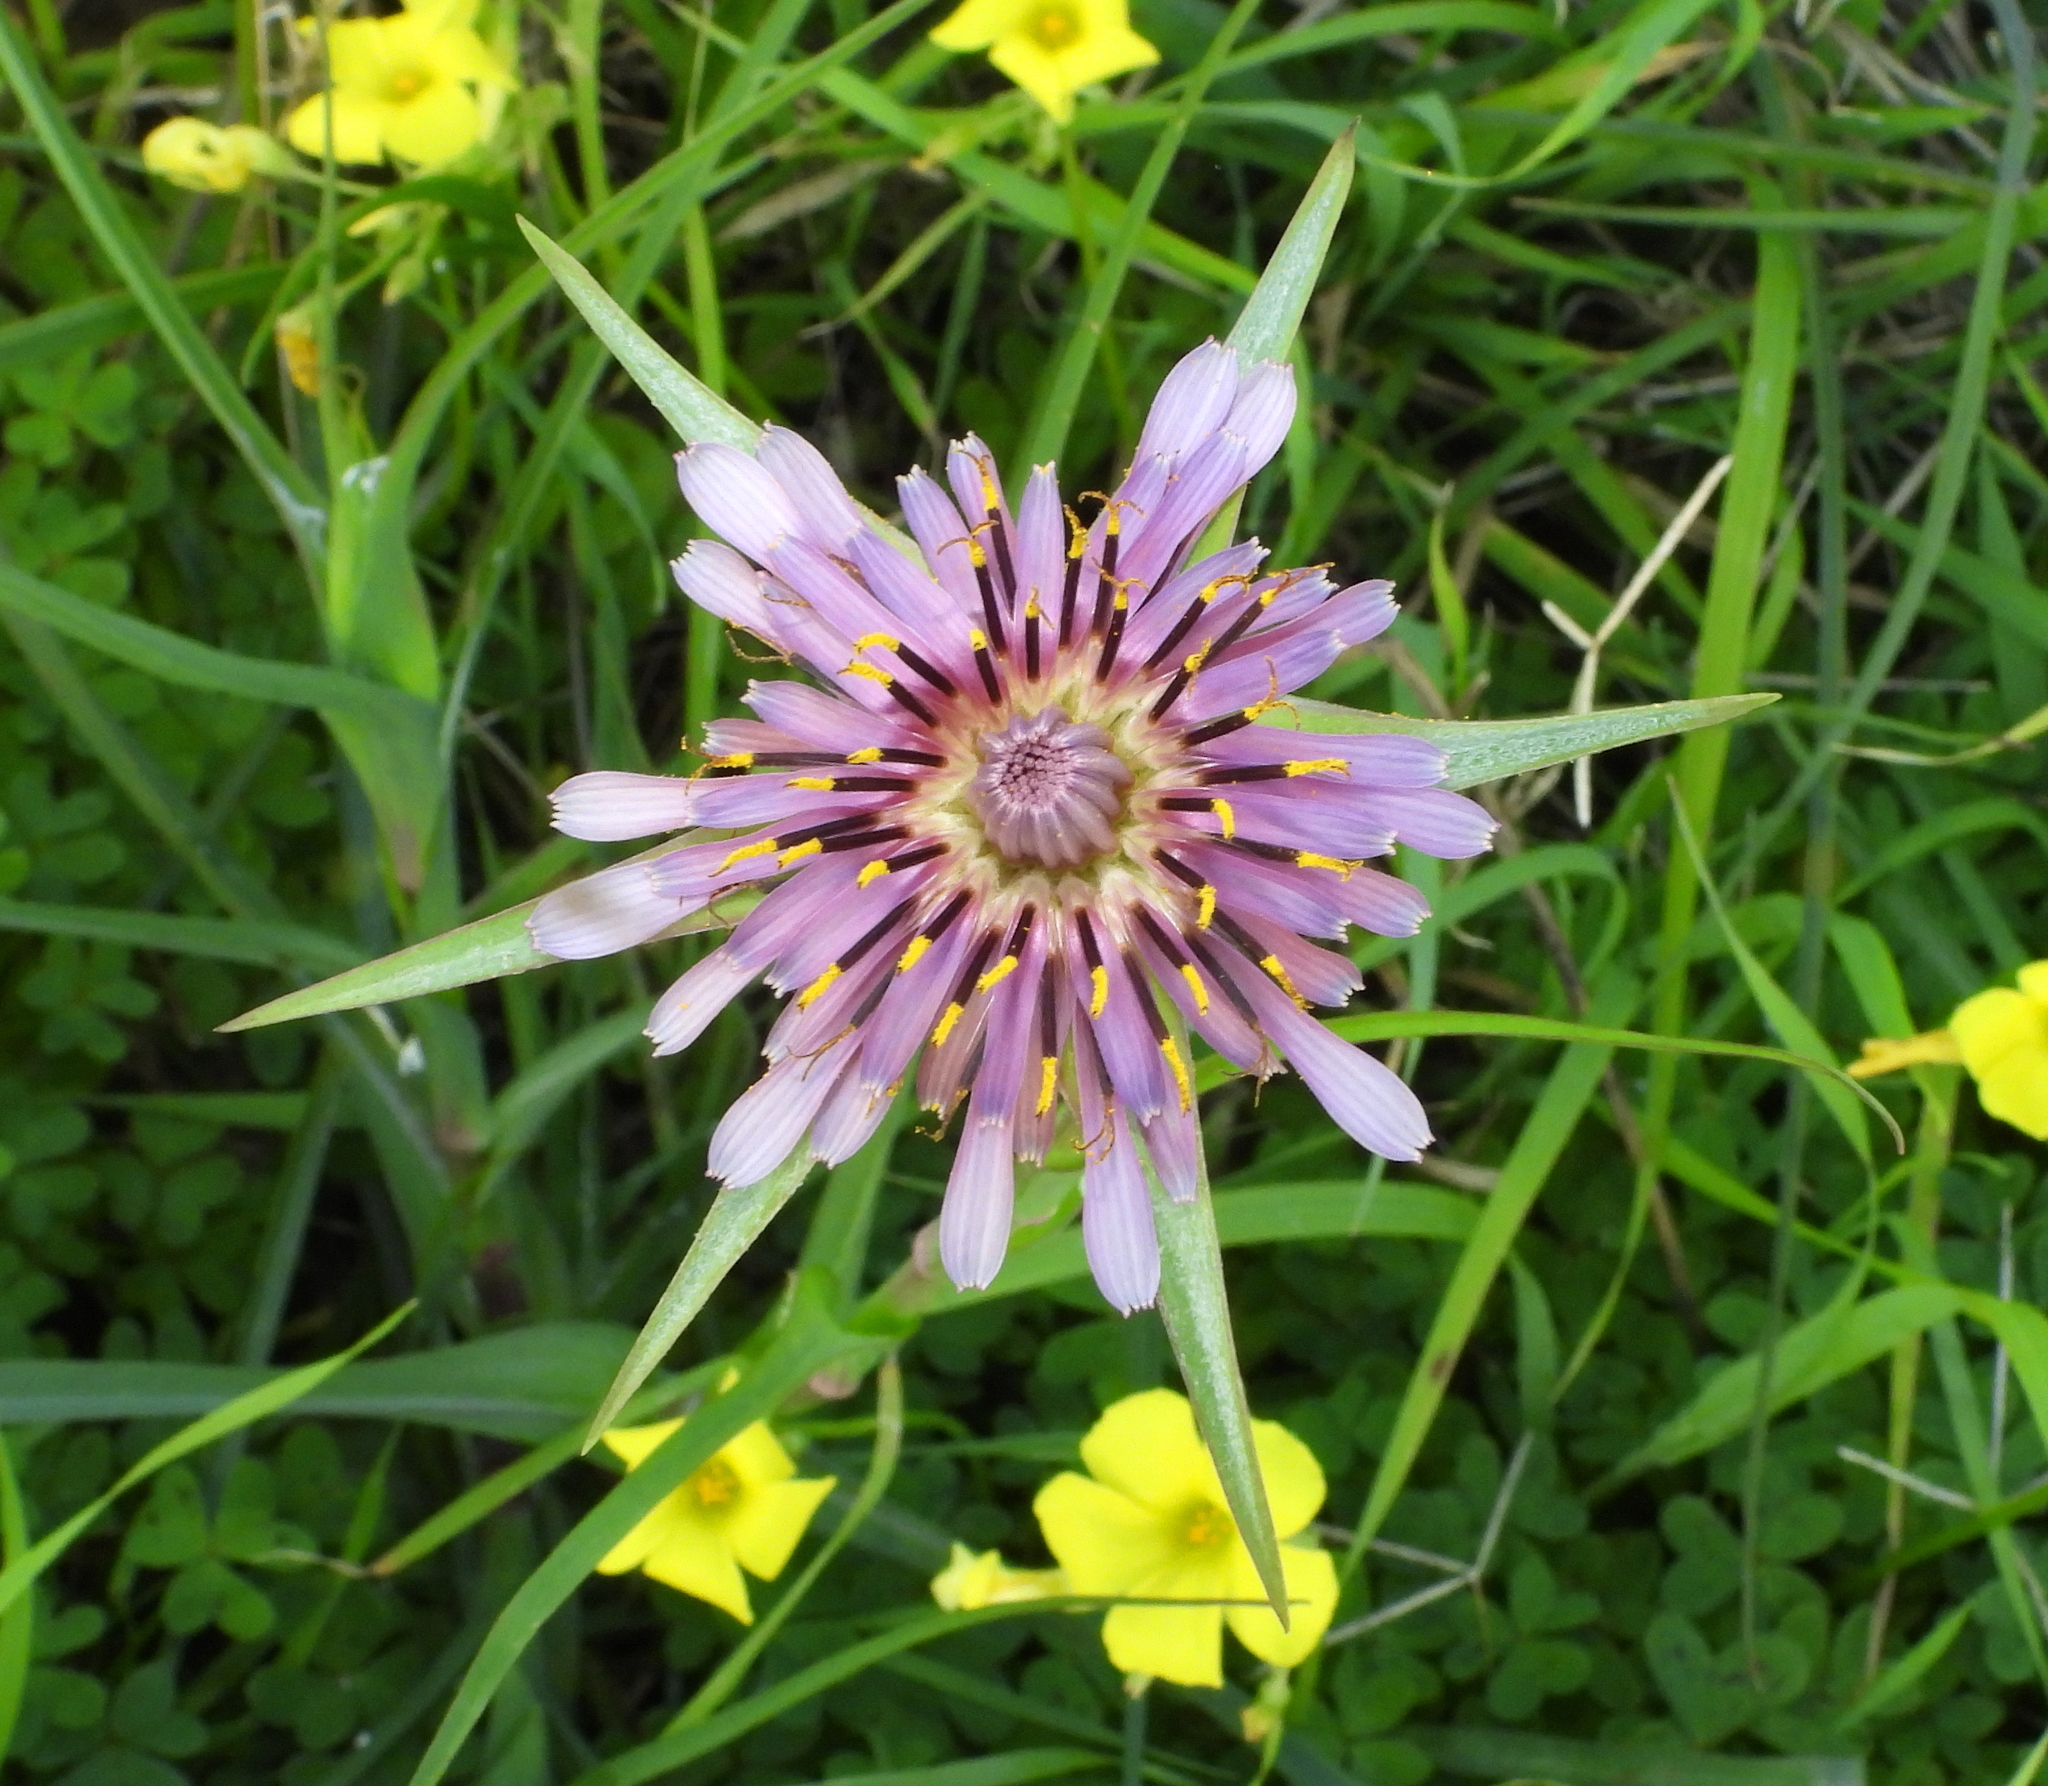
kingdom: Plantae
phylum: Tracheophyta
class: Magnoliopsida
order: Asterales
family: Asteraceae
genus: Tragopogon
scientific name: Tragopogon porrifolius
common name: Salsify
